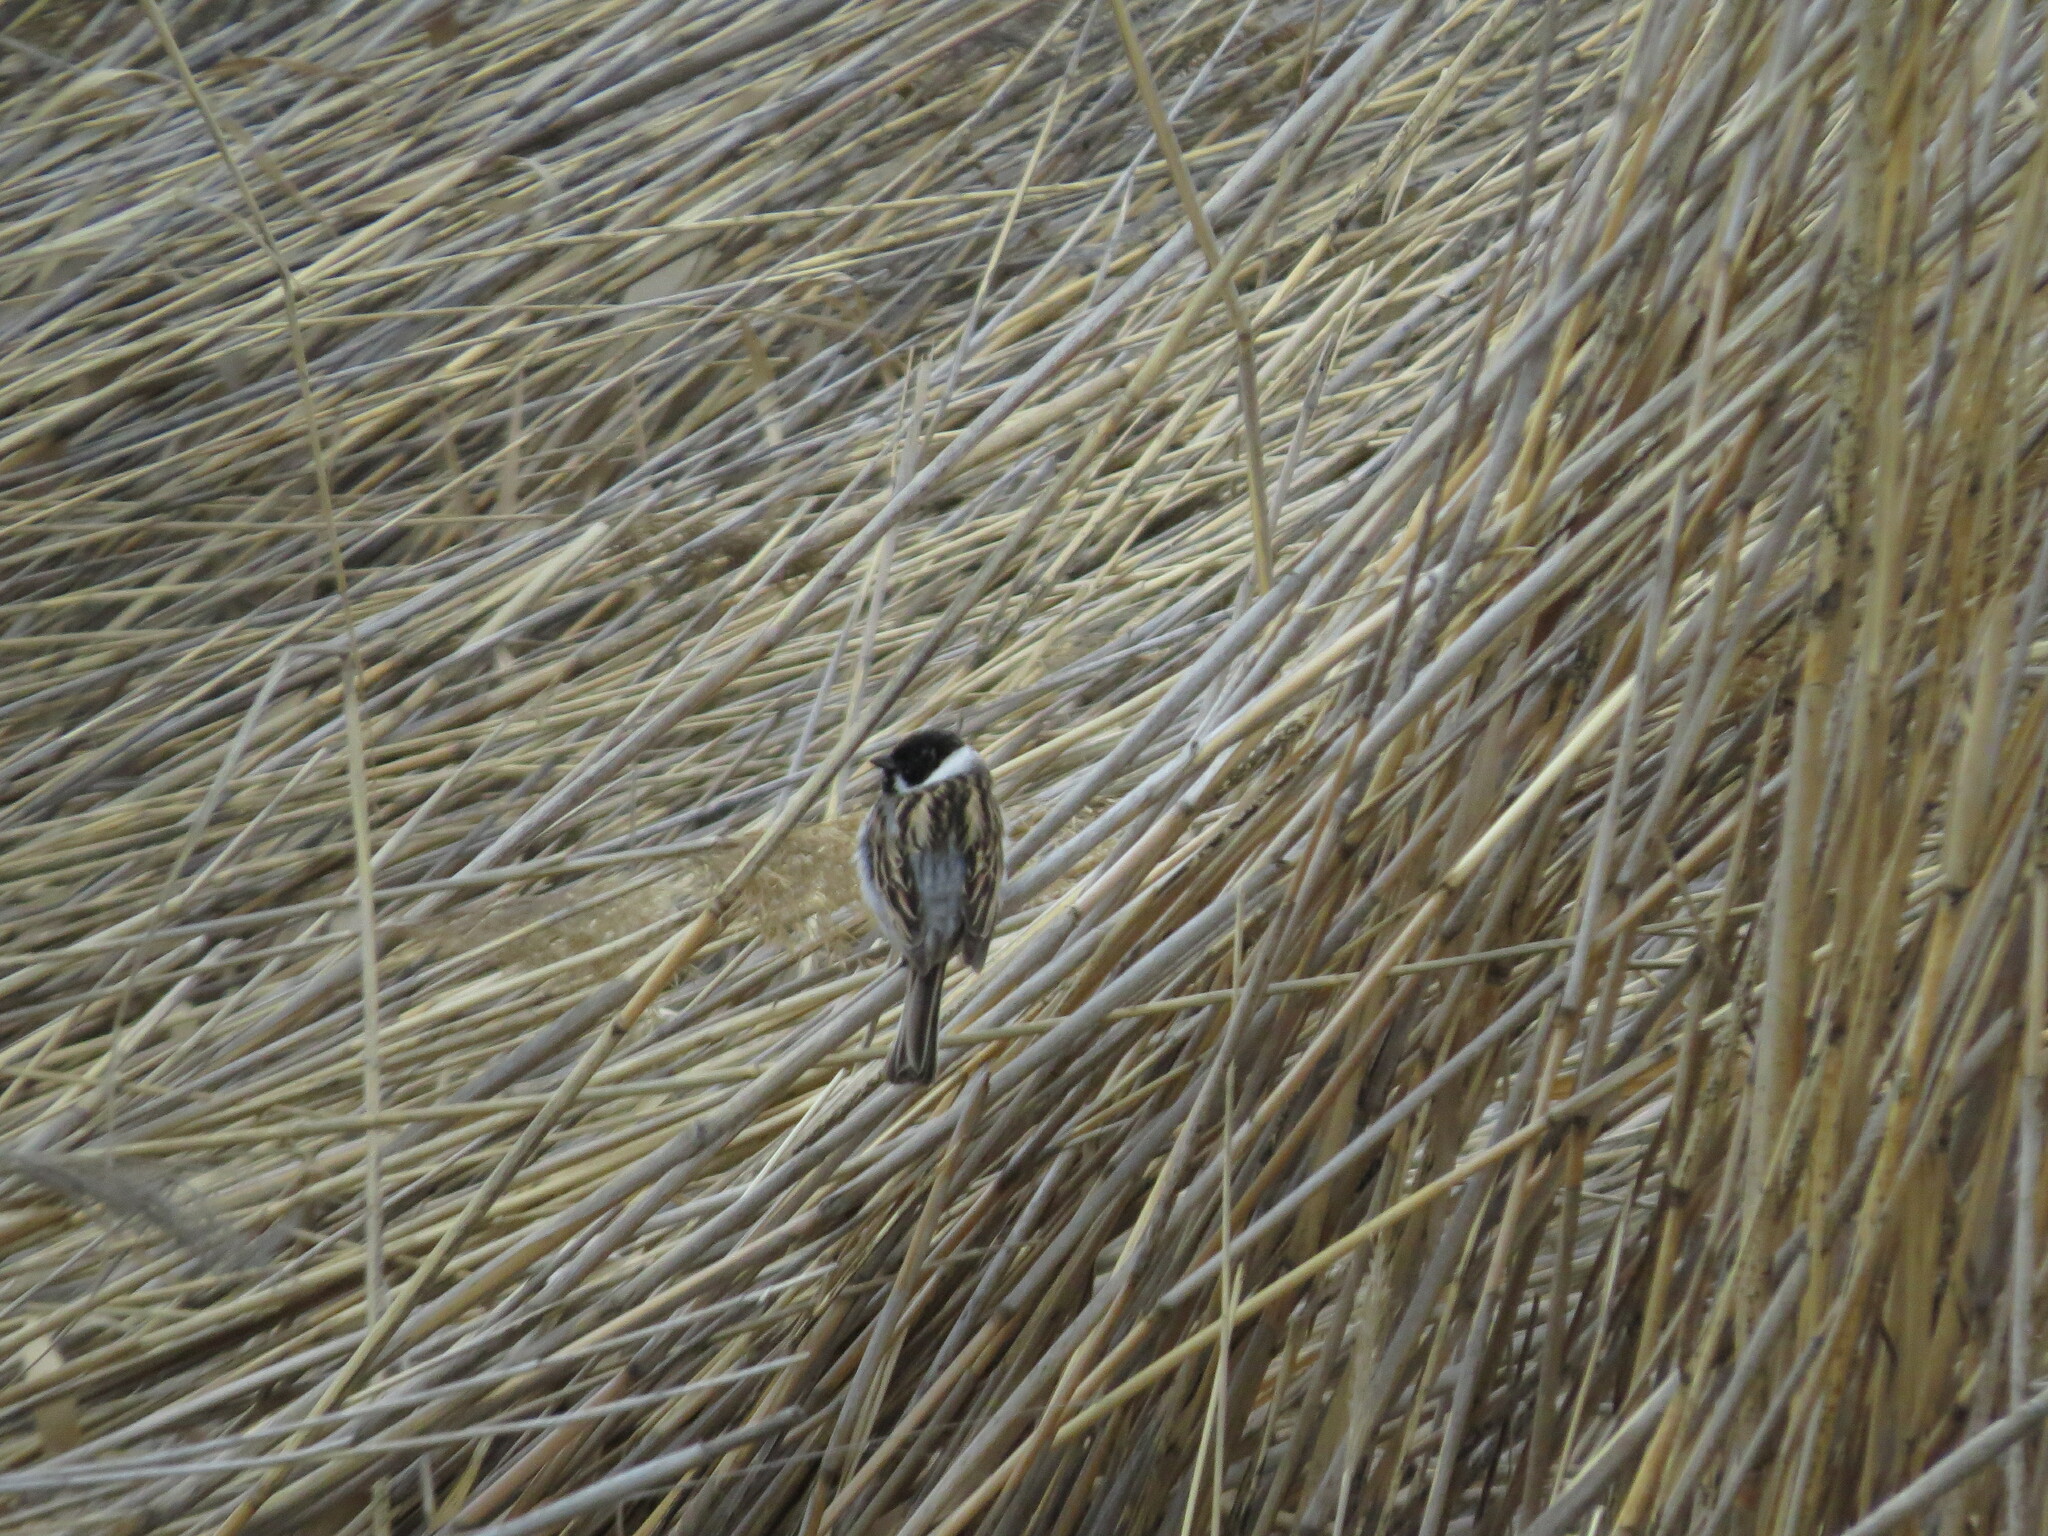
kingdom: Animalia
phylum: Chordata
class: Aves
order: Passeriformes
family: Emberizidae
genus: Emberiza
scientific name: Emberiza schoeniclus
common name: Reed bunting
